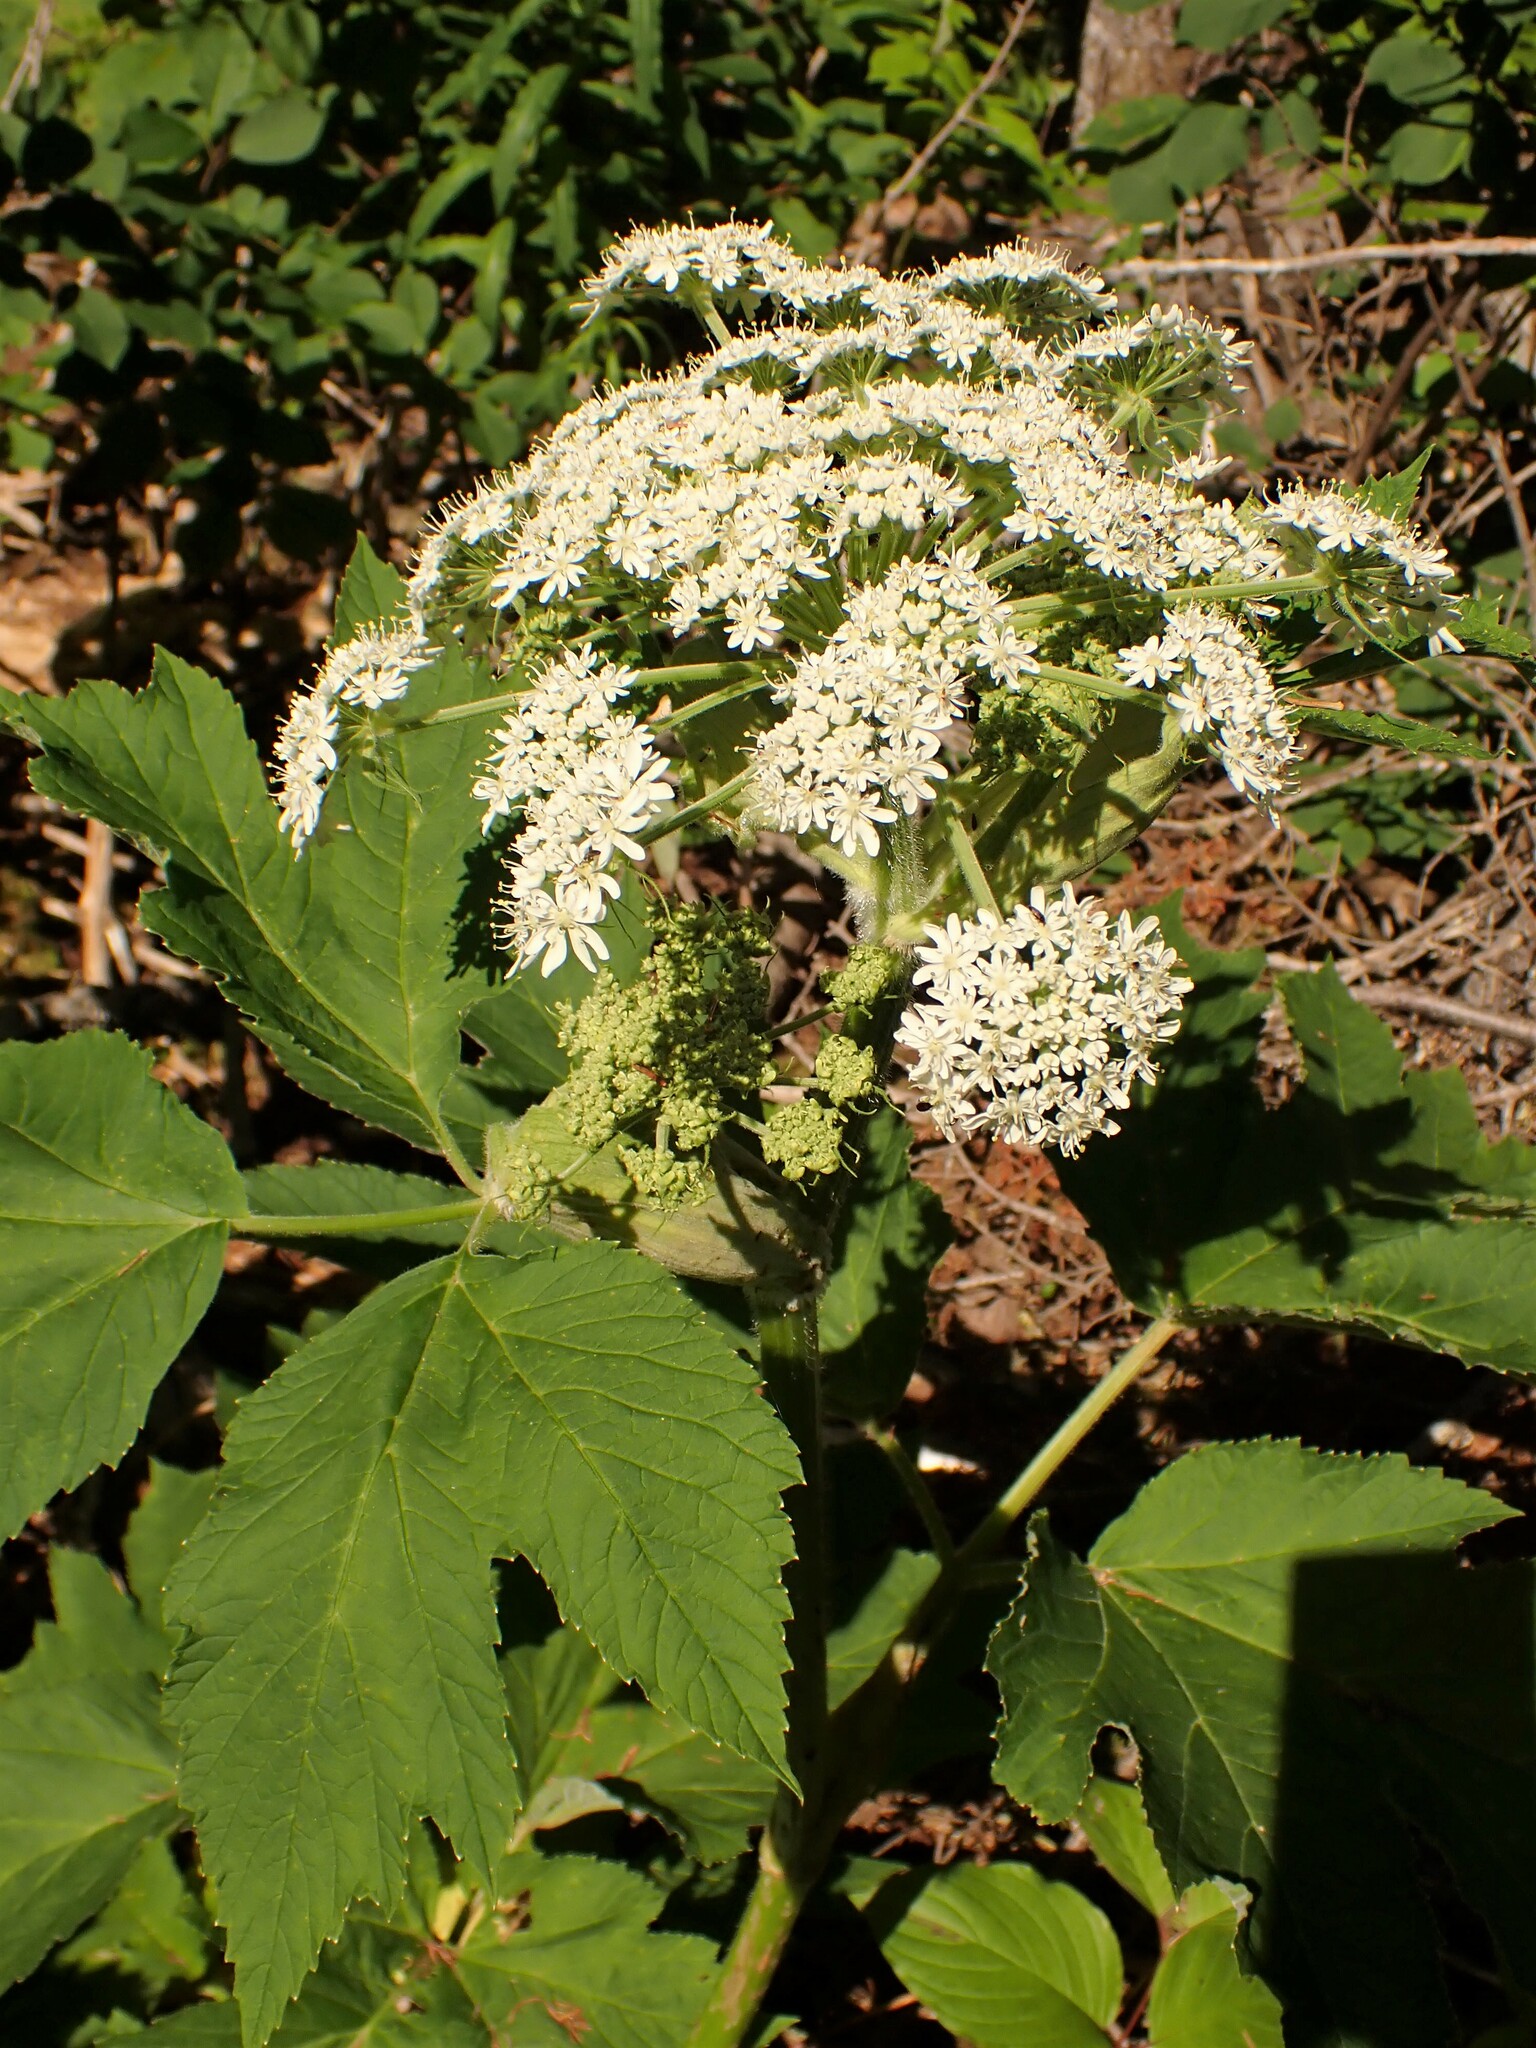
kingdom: Plantae
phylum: Tracheophyta
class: Magnoliopsida
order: Apiales
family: Apiaceae
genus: Heracleum
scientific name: Heracleum maximum
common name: American cow parsnip
